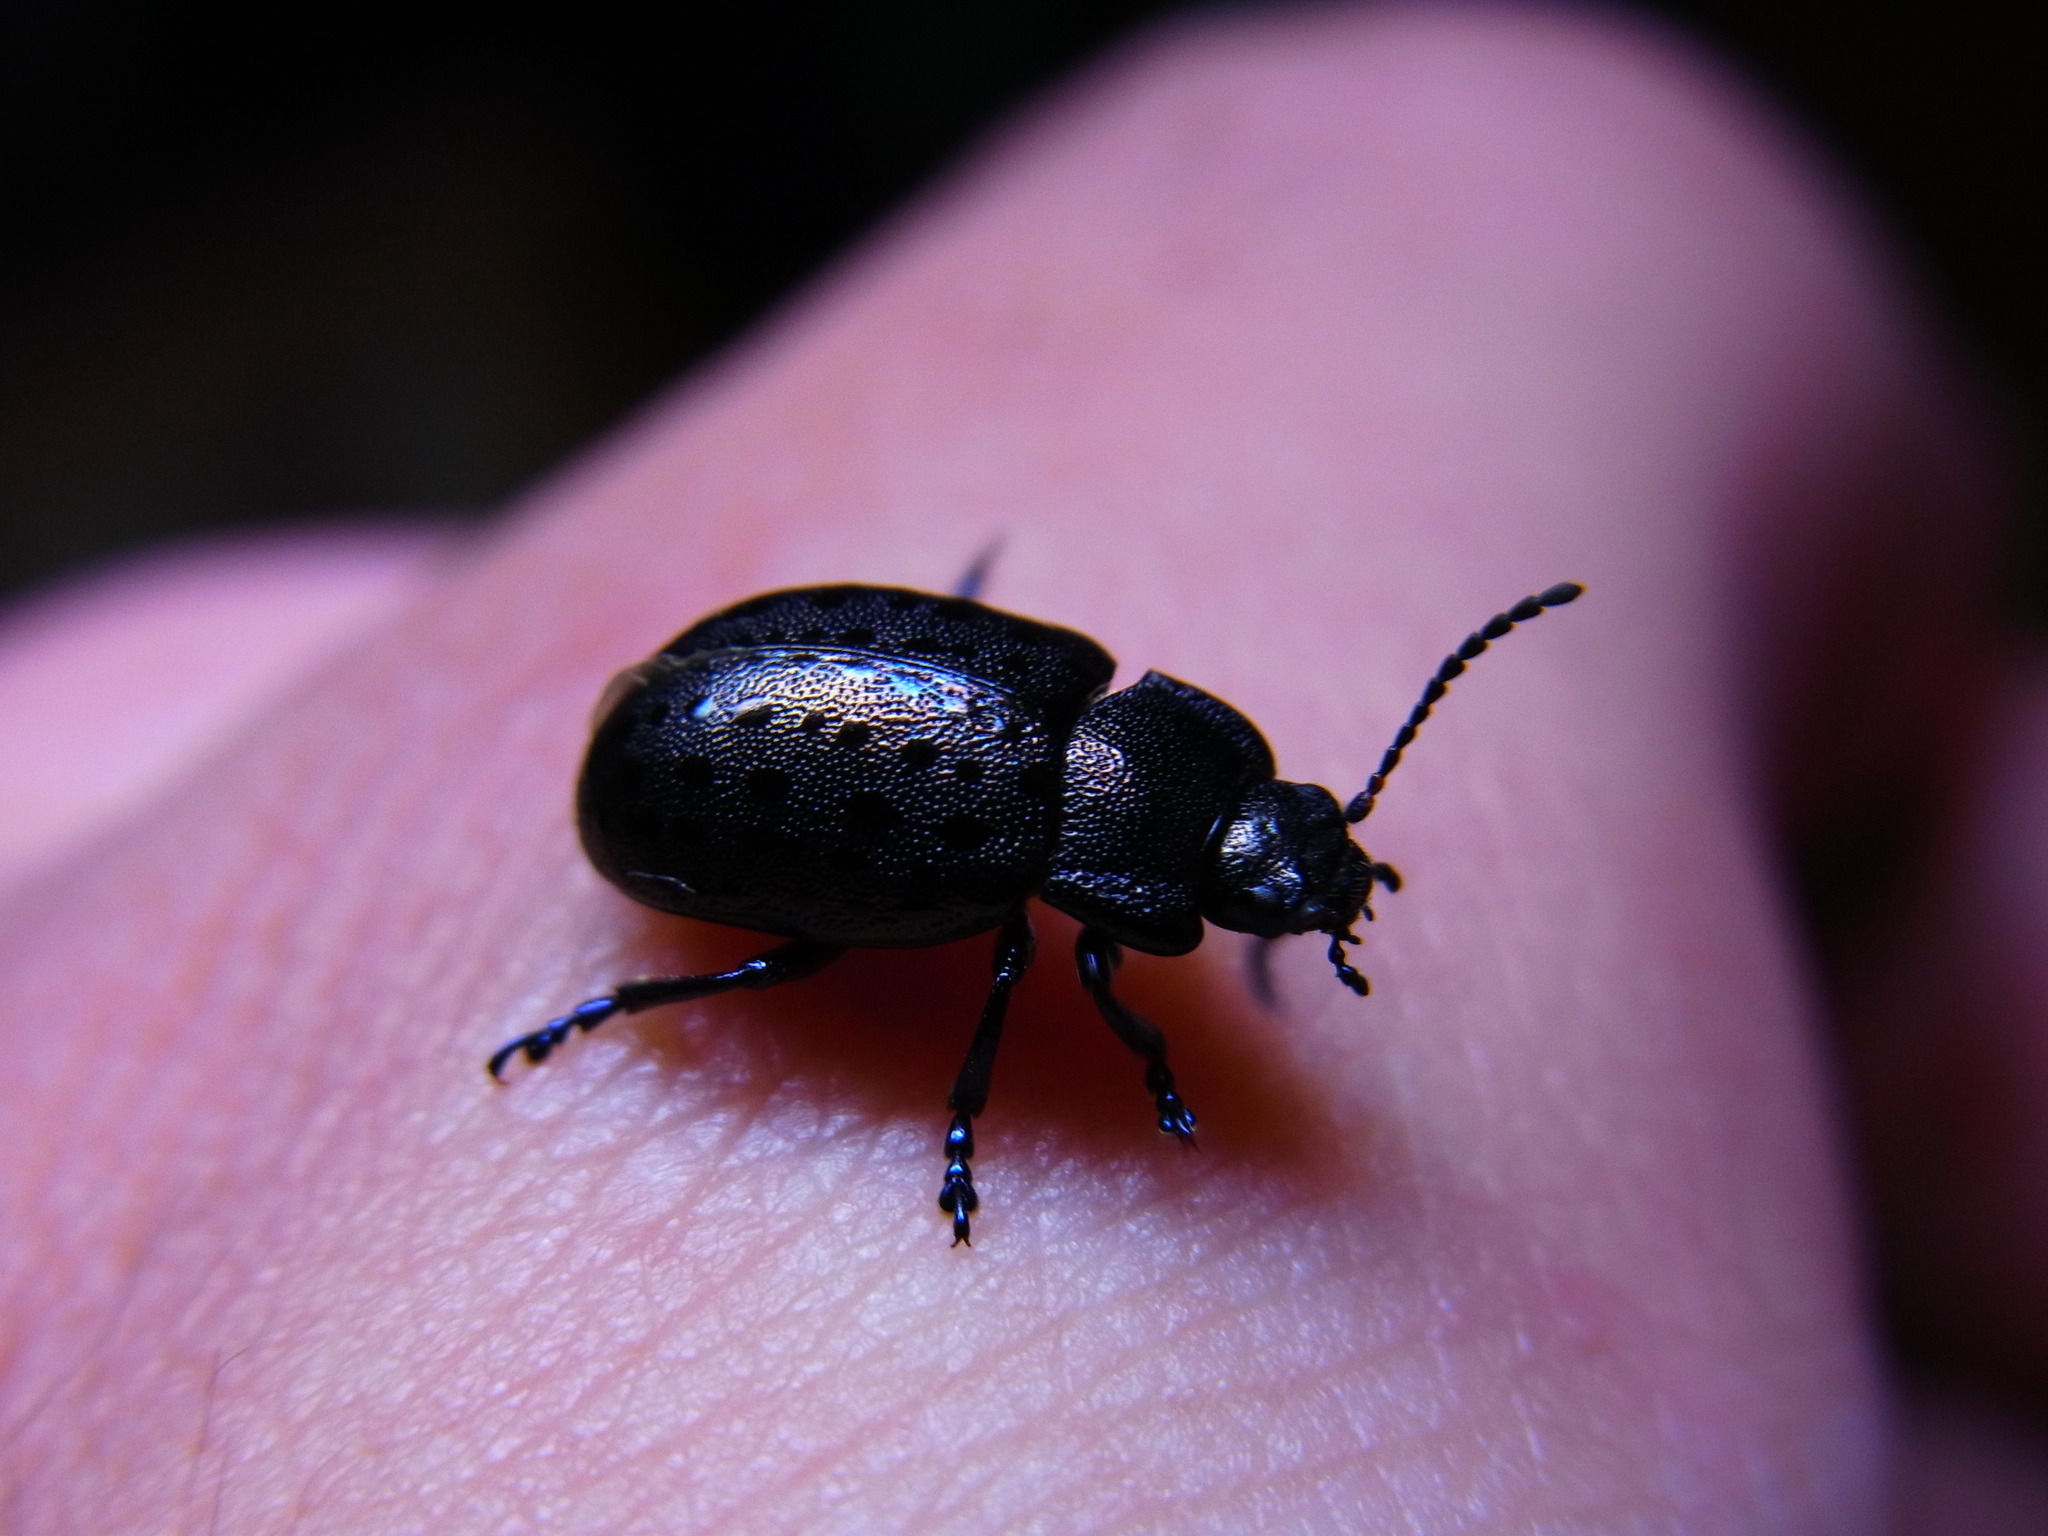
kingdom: Animalia
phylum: Arthropoda
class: Insecta
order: Coleoptera
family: Chrysomelidae
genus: Chrysolina
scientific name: Chrysolina
